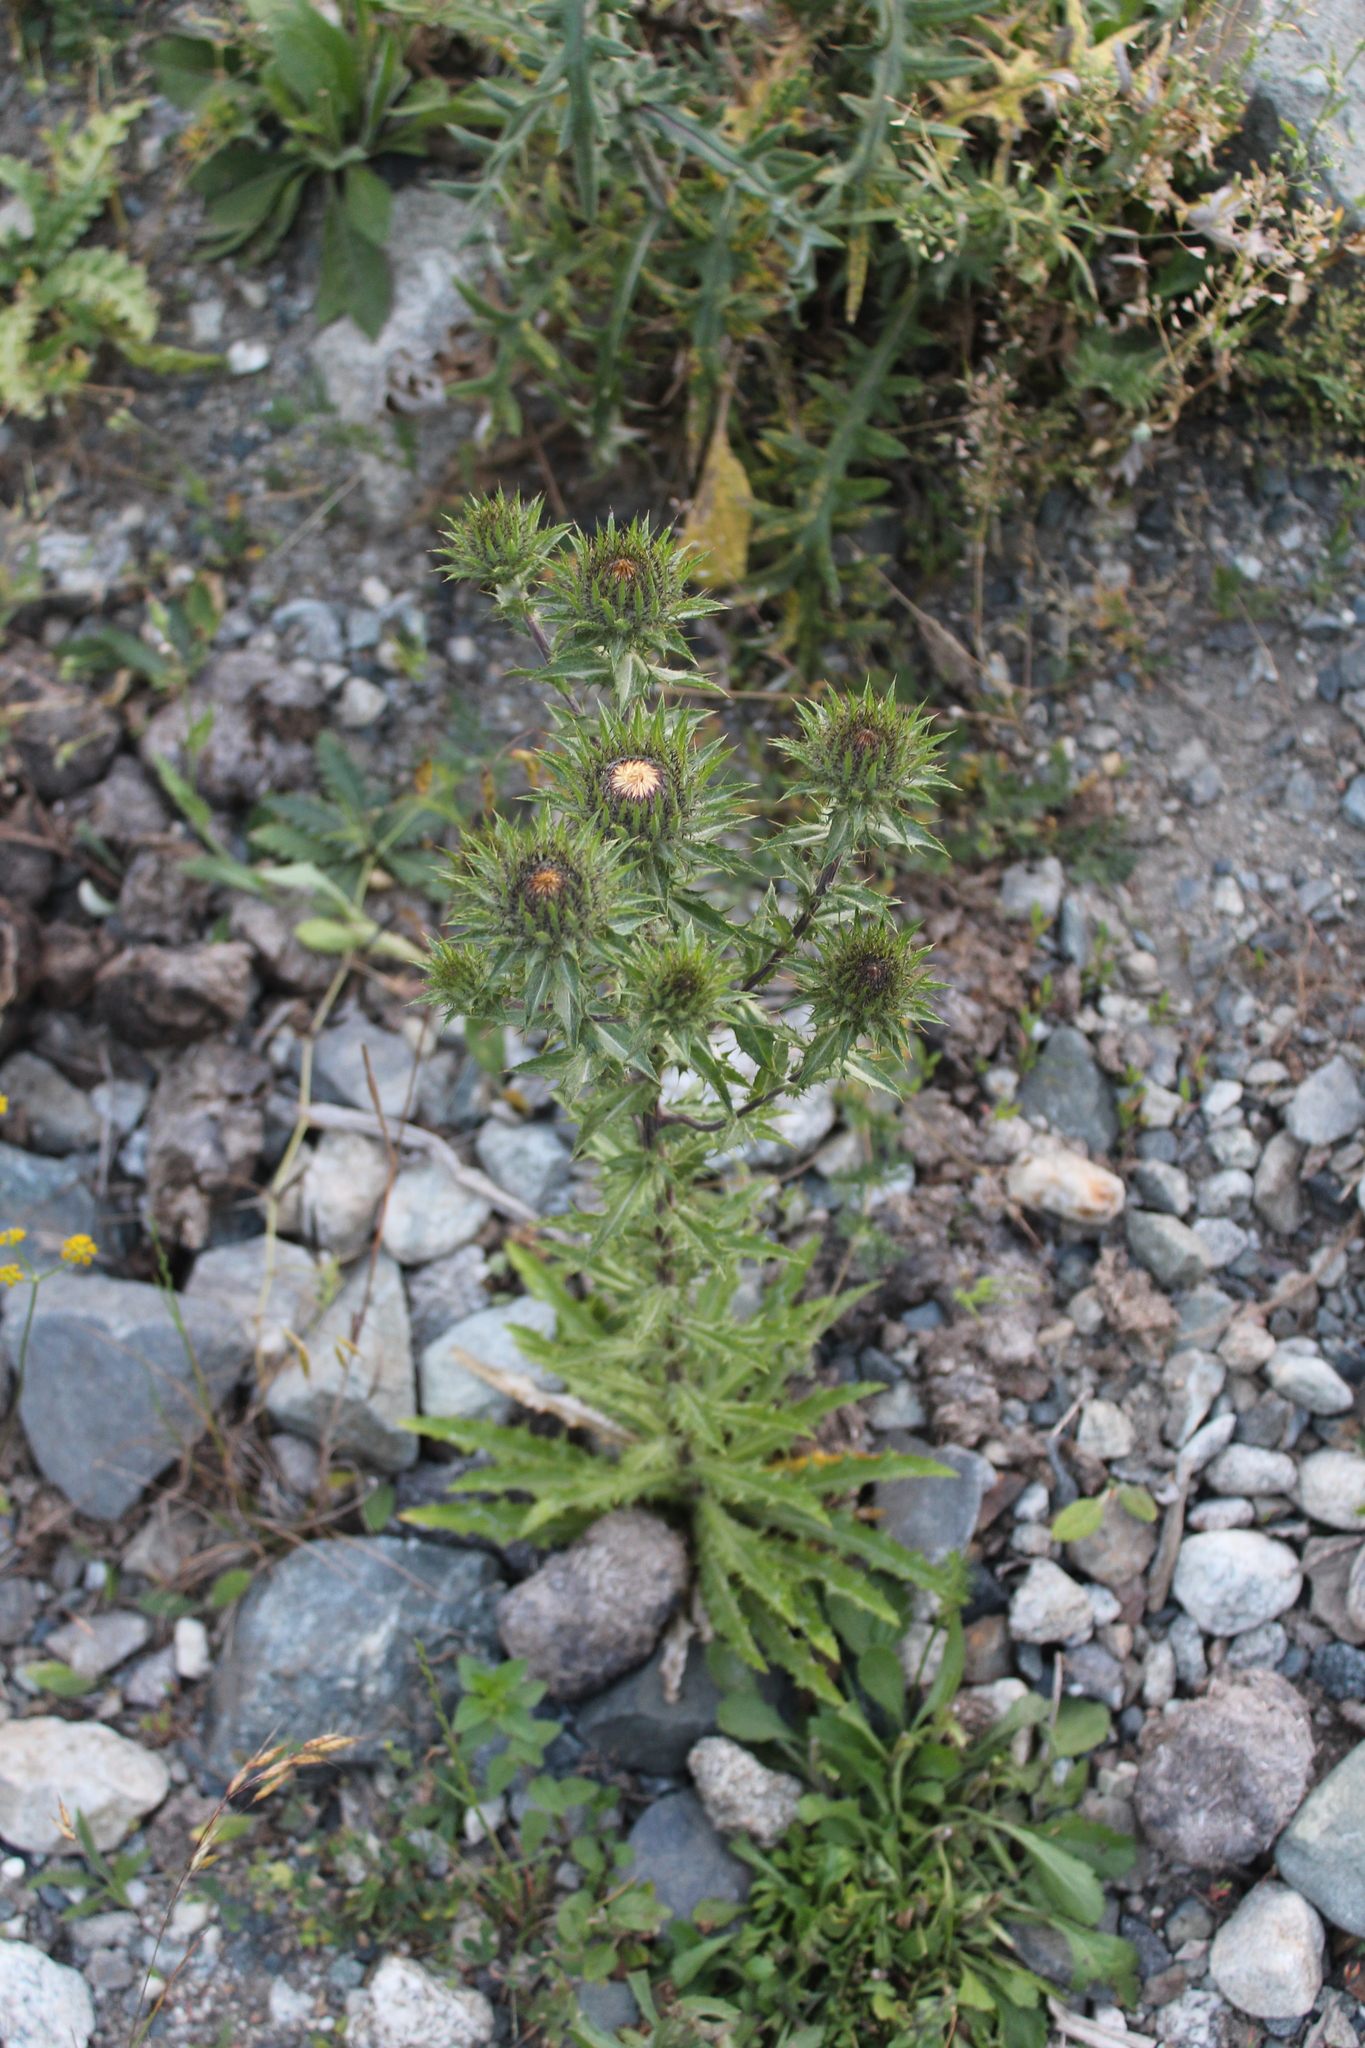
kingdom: Plantae
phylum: Tracheophyta
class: Magnoliopsida
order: Asterales
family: Asteraceae
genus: Carlina
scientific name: Carlina biebersteinii
